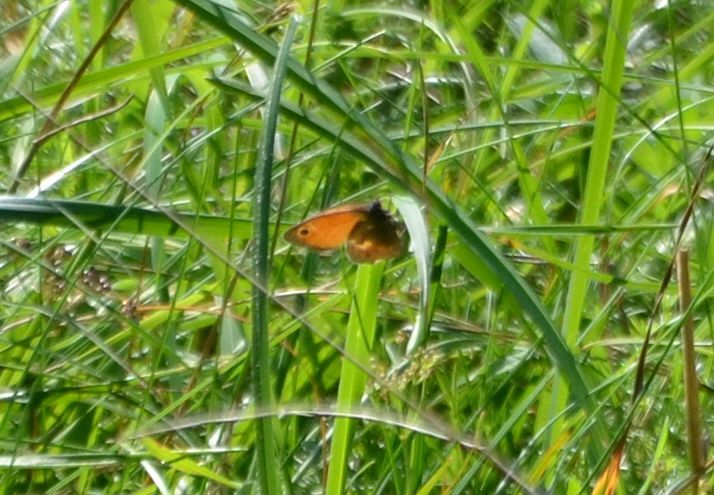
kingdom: Animalia
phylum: Arthropoda
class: Insecta
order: Lepidoptera
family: Nymphalidae
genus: Coenonympha
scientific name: Coenonympha pamphilus
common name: Small heath
